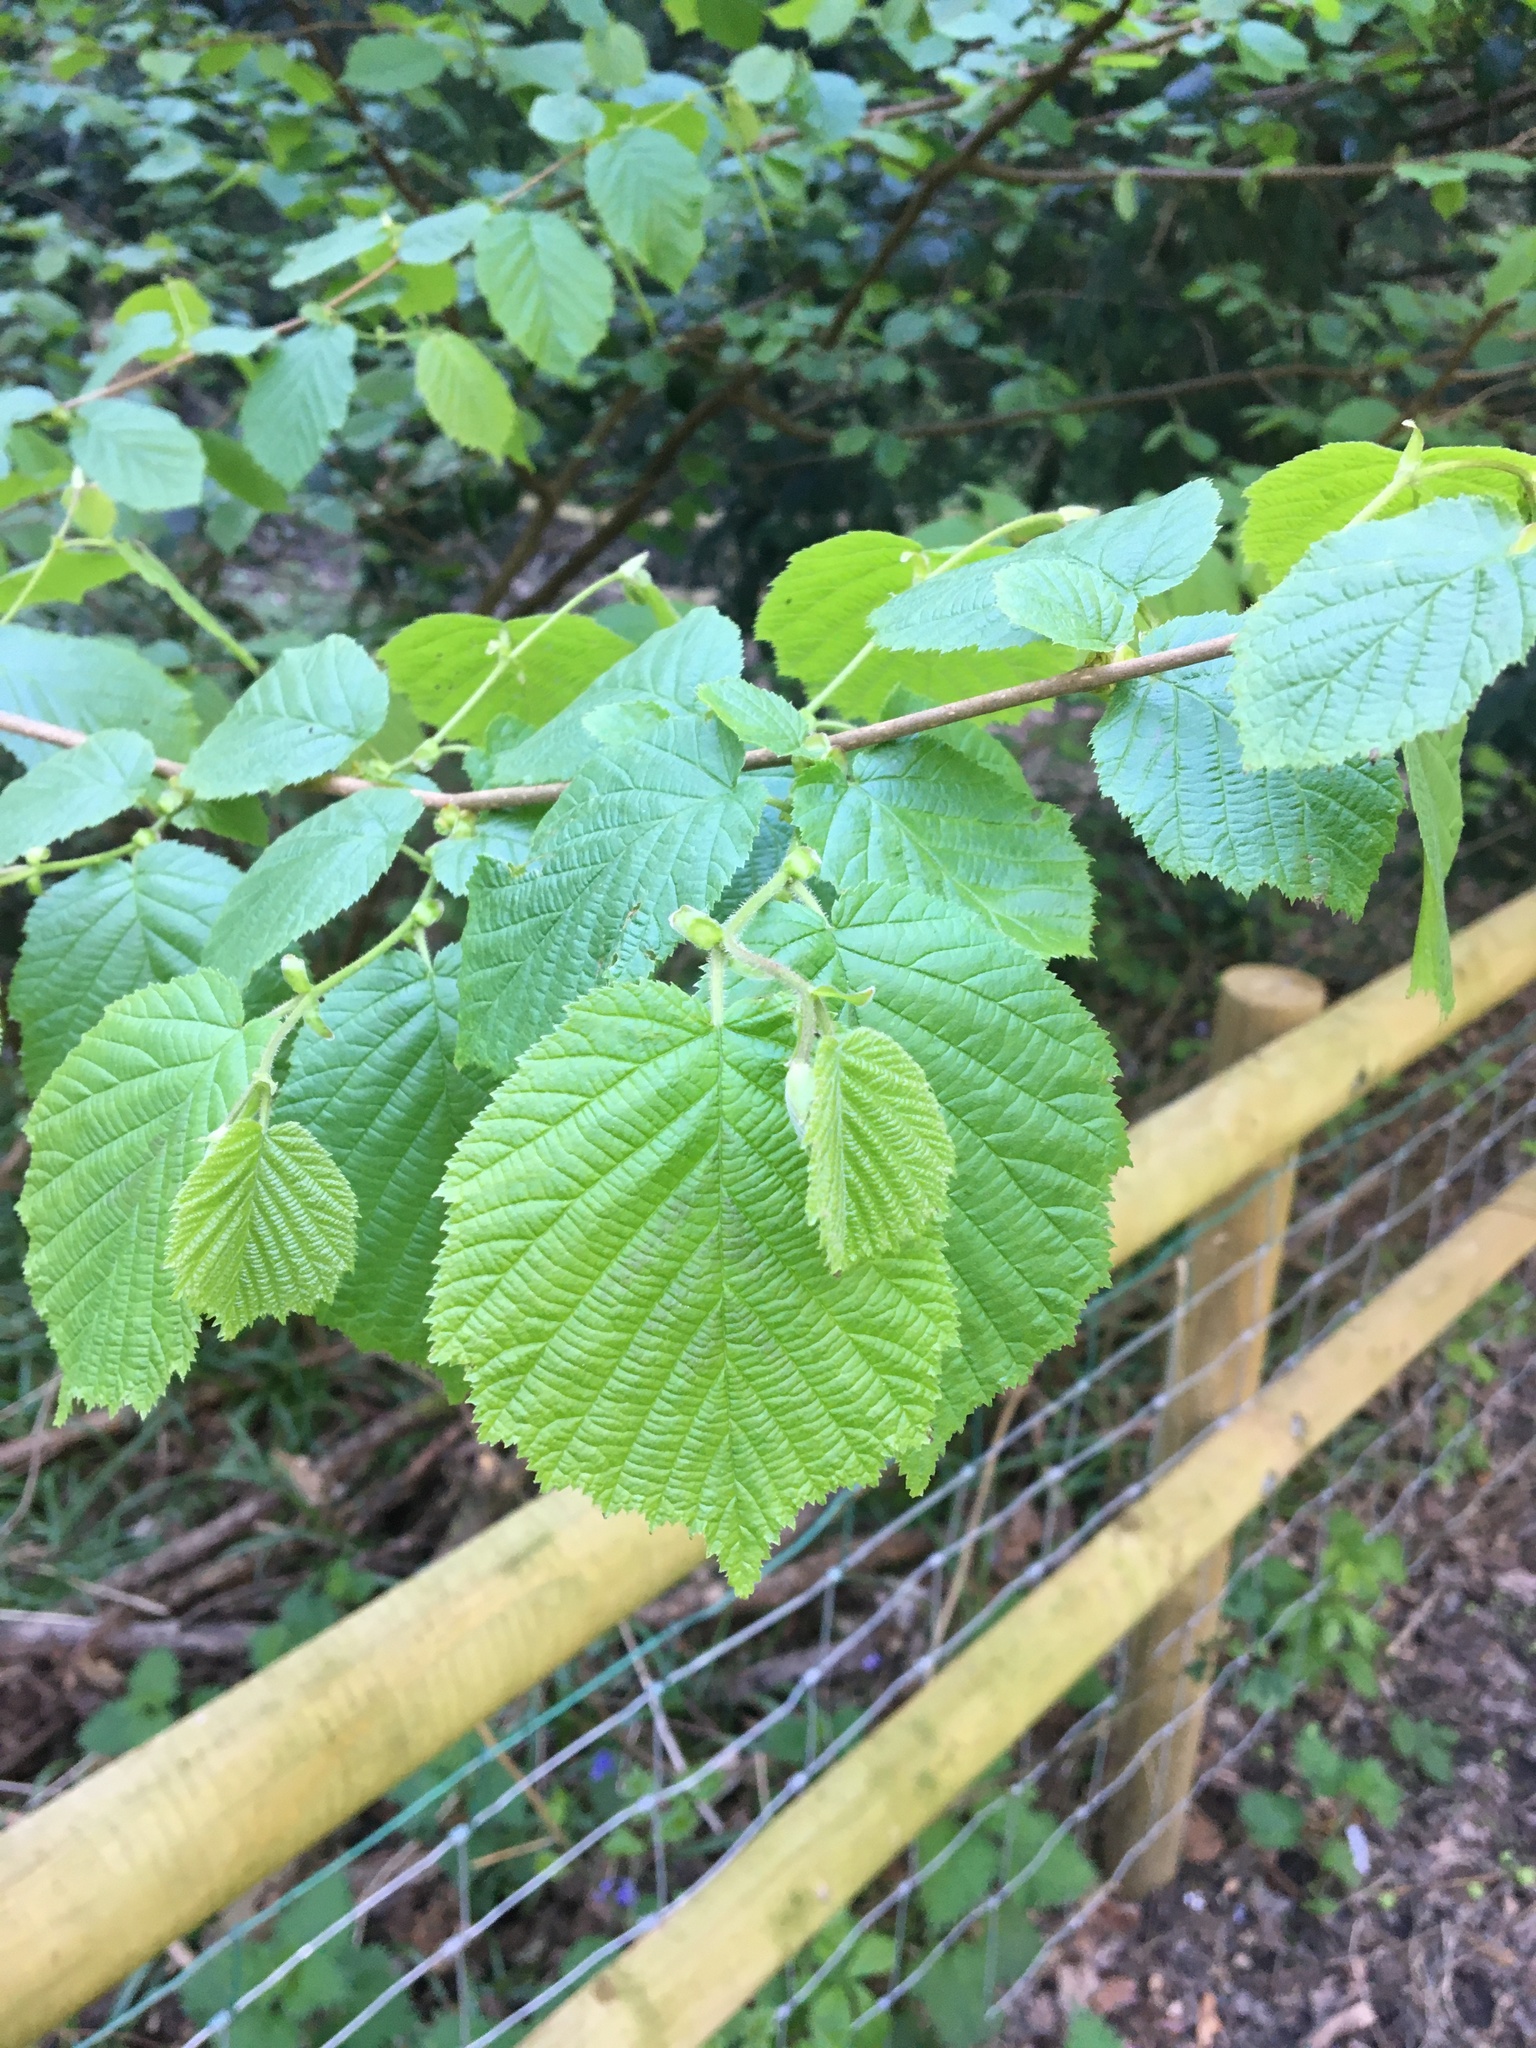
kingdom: Plantae
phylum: Tracheophyta
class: Magnoliopsida
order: Fagales
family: Betulaceae
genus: Corylus
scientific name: Corylus avellana
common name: European hazel
